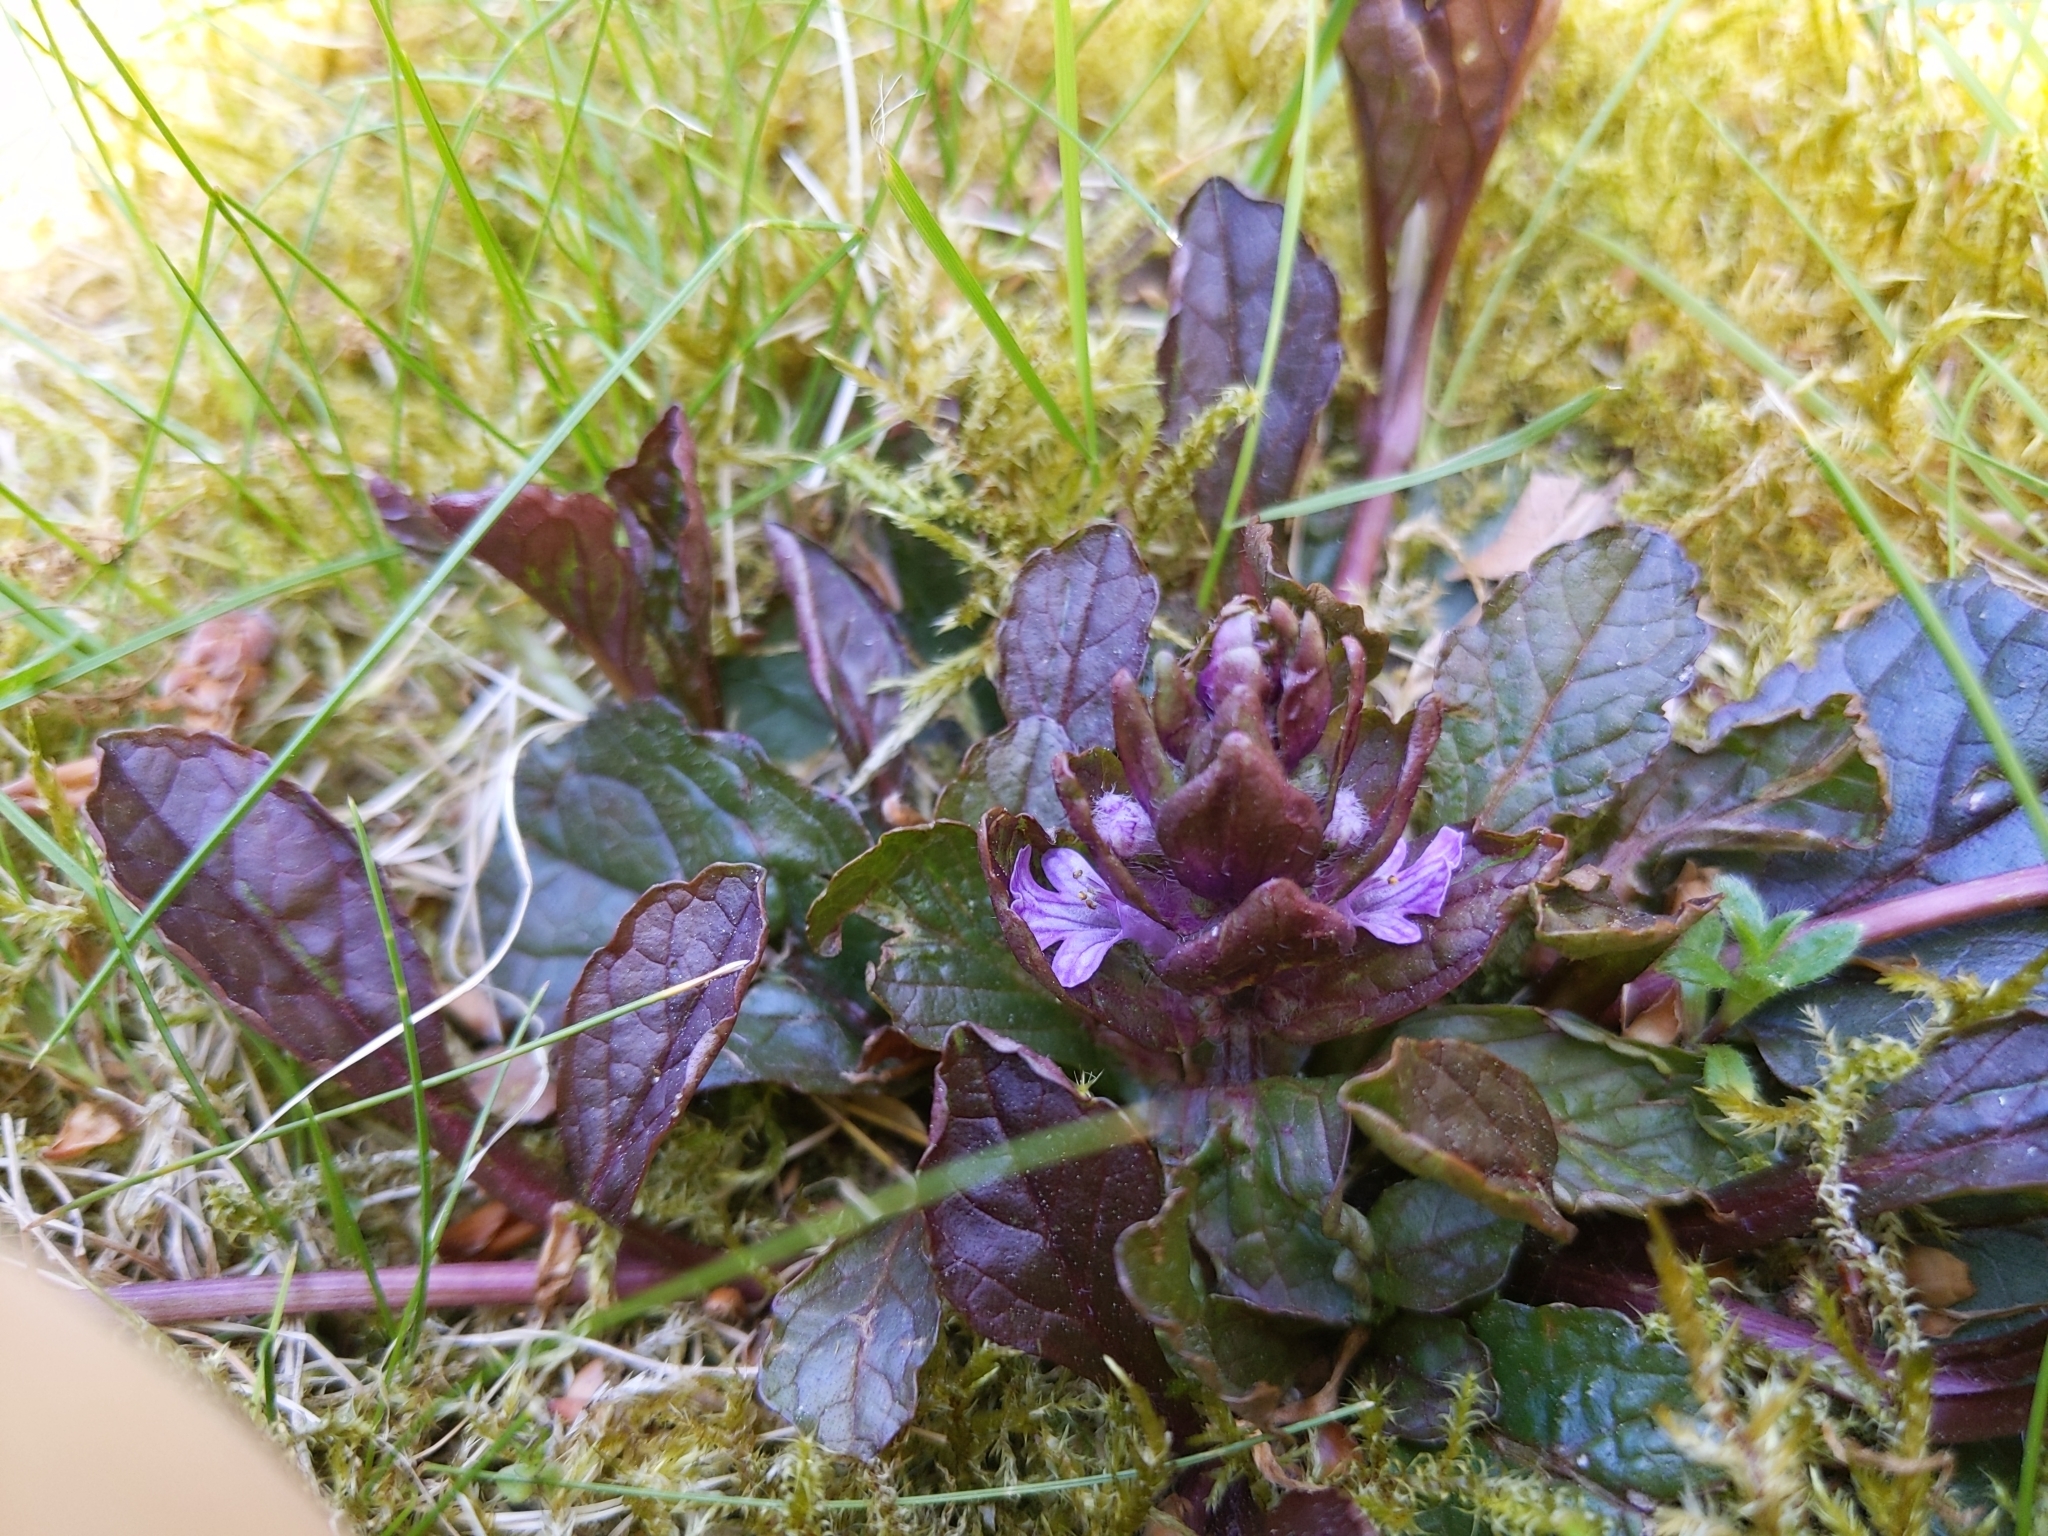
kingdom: Plantae
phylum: Tracheophyta
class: Magnoliopsida
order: Lamiales
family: Lamiaceae
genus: Ajuga
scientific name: Ajuga reptans
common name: Bugle
